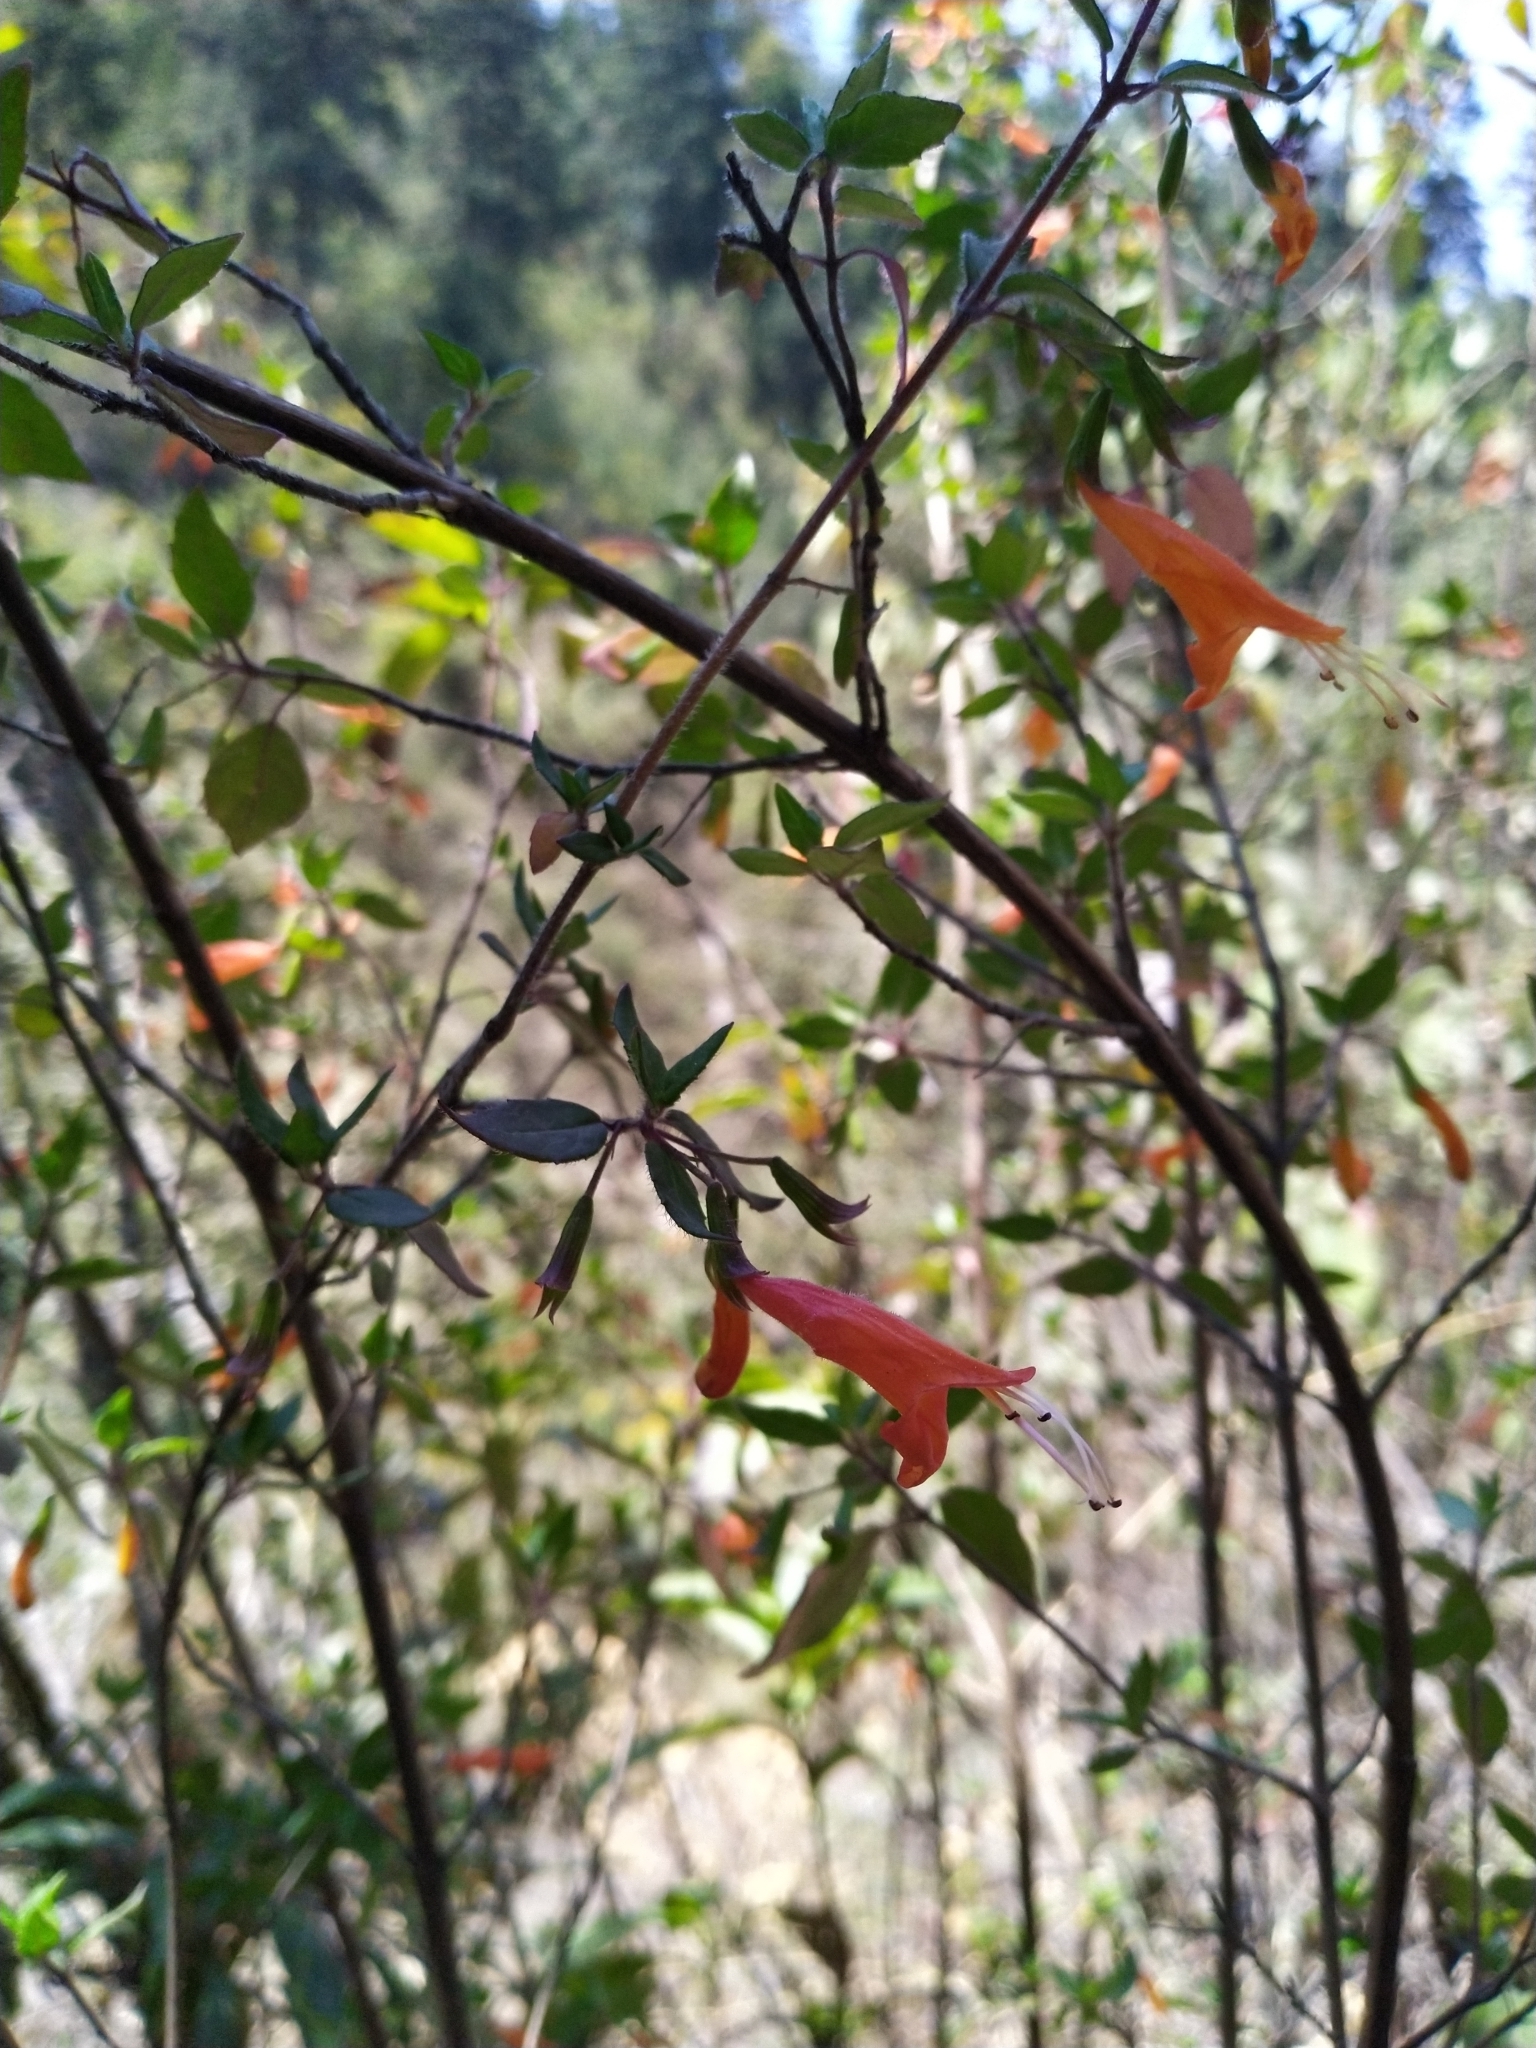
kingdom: Plantae
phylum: Tracheophyta
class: Magnoliopsida
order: Lamiales
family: Lamiaceae
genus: Clinopodium
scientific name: Clinopodium macrostemum
